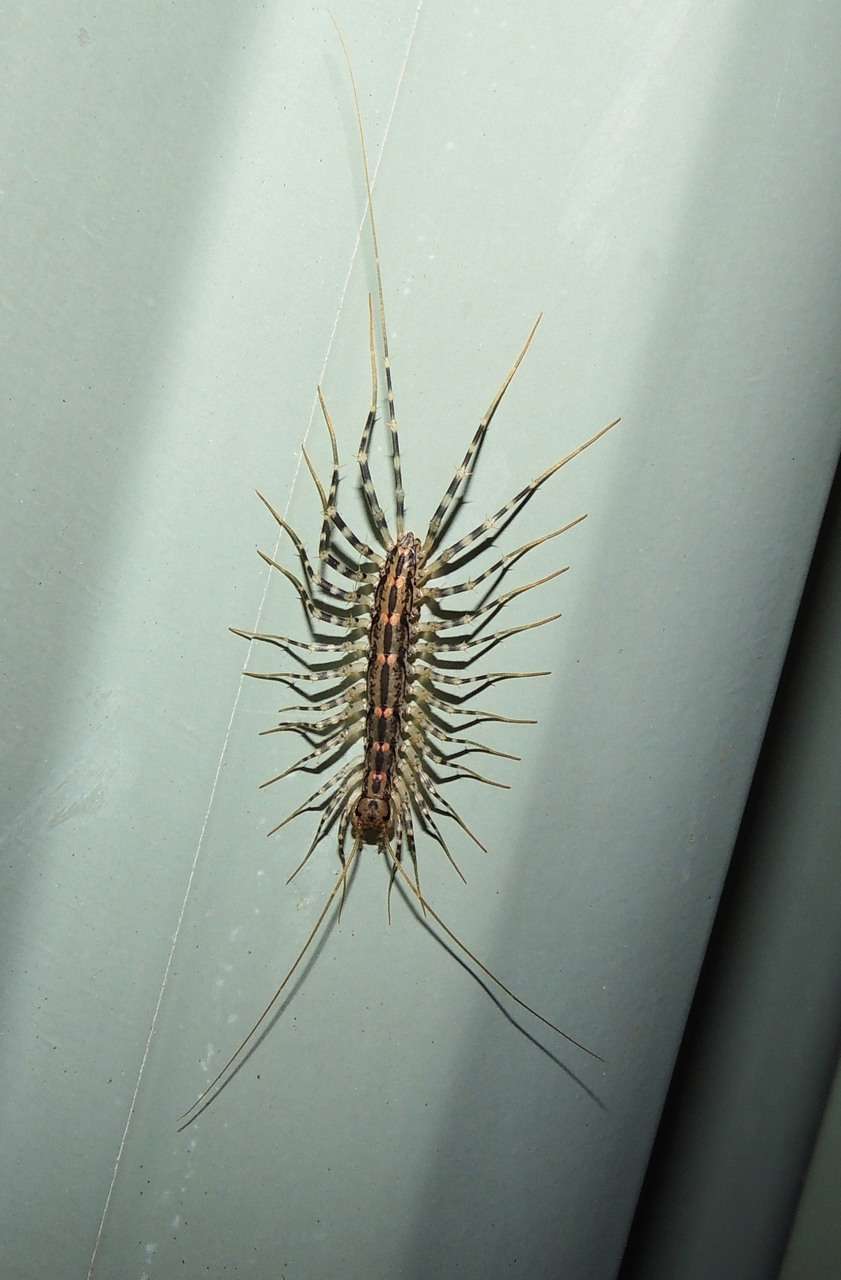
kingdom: Animalia
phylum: Arthropoda
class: Chilopoda
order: Scutigeromorpha
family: Scutigeridae
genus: Allothereua
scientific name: Allothereua maculata
